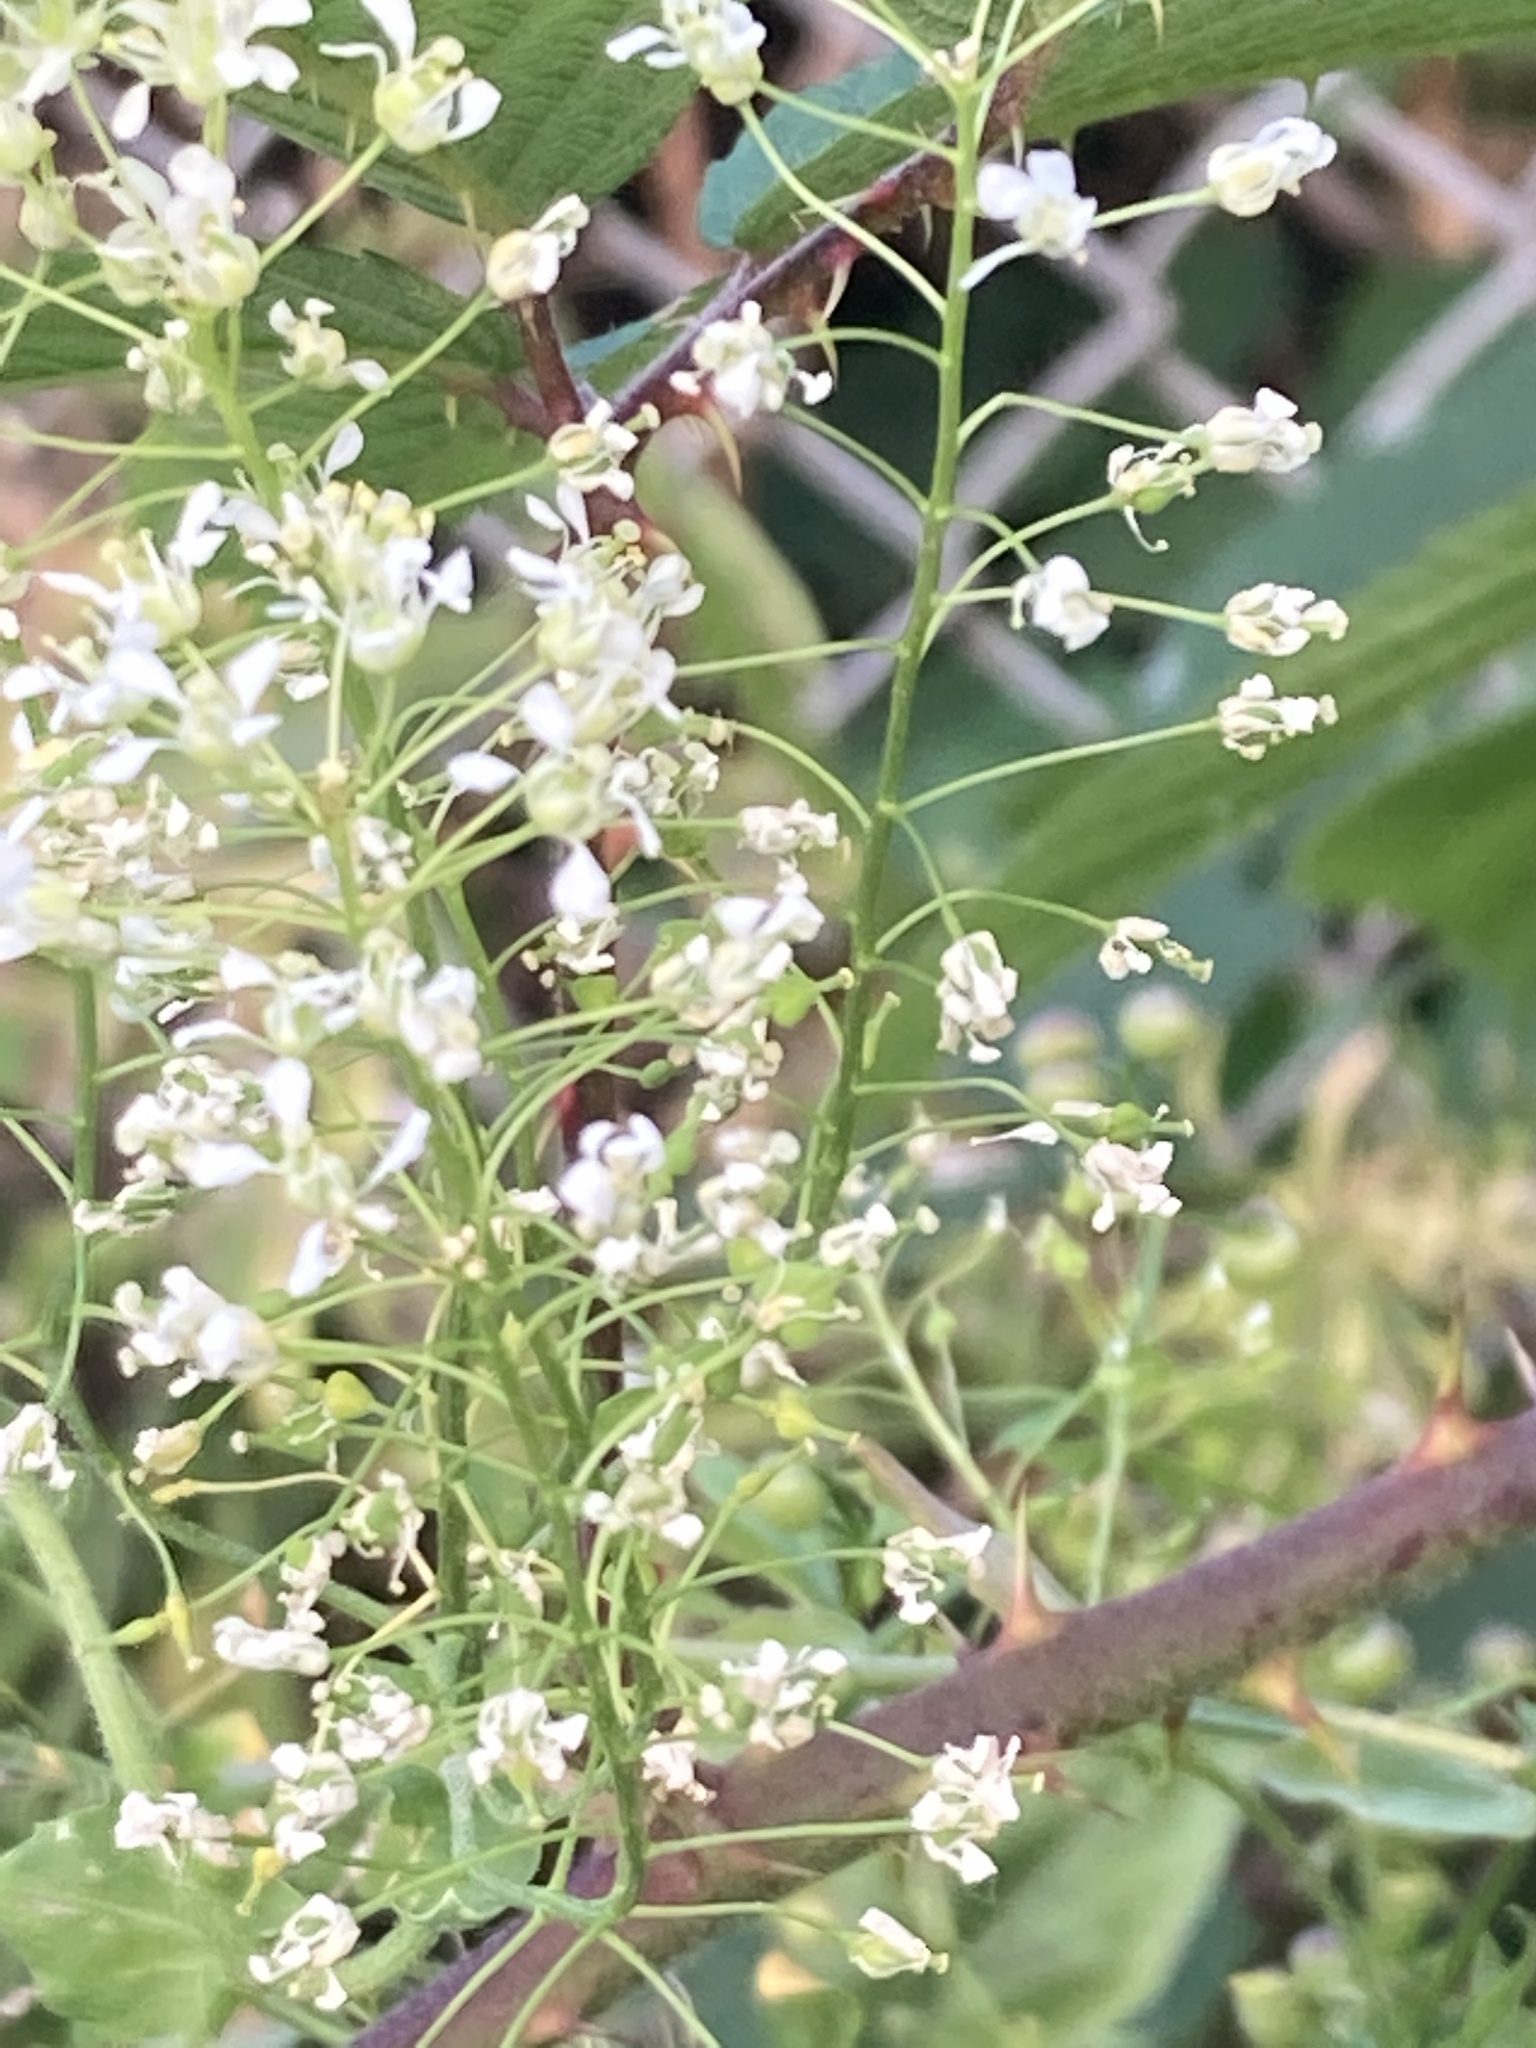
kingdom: Plantae
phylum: Tracheophyta
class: Magnoliopsida
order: Brassicales
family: Brassicaceae
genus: Lepidium
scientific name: Lepidium draba
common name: Hoary cress
